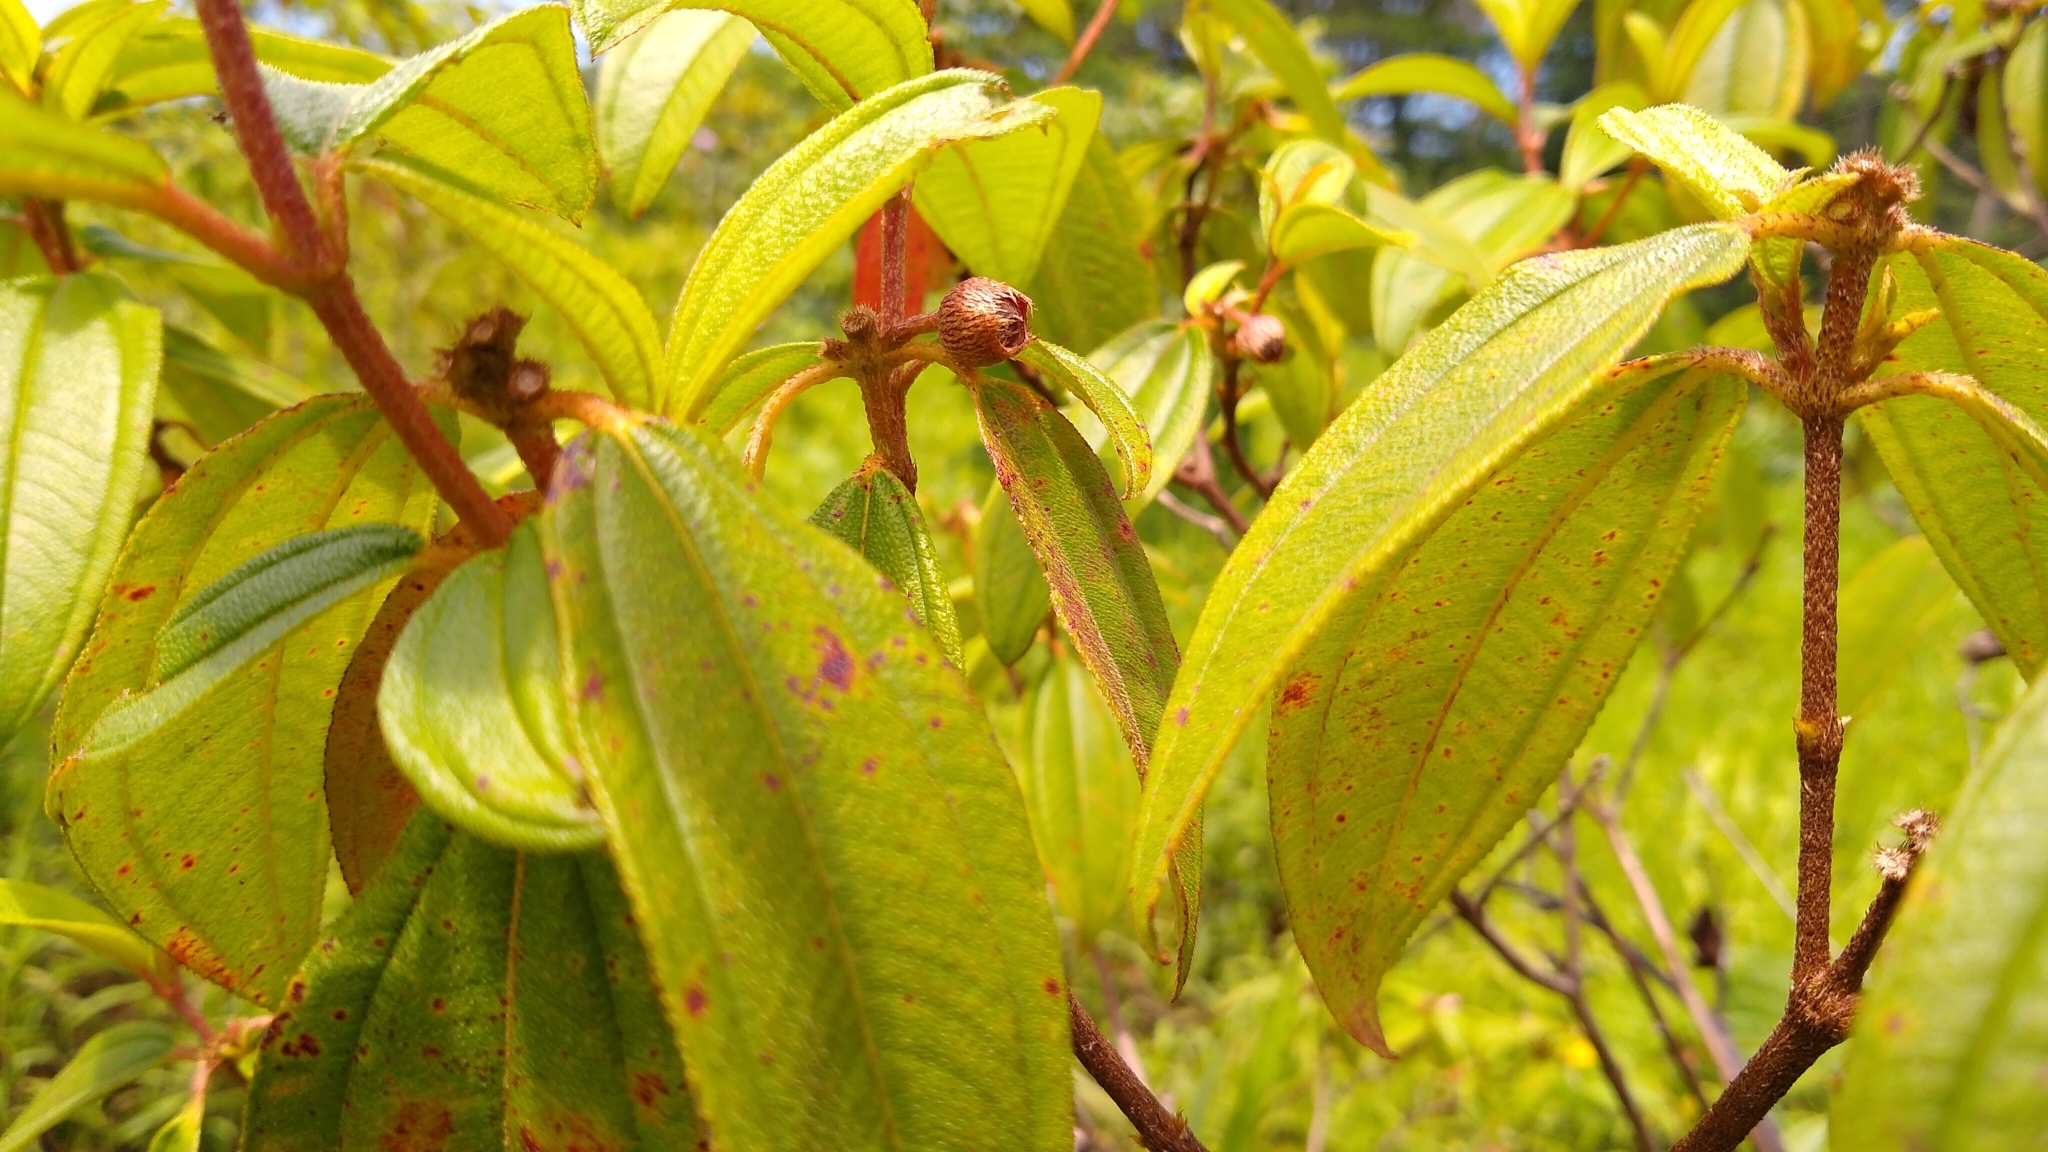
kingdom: Plantae
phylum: Tracheophyta
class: Magnoliopsida
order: Myrtales
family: Melastomataceae
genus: Melastoma
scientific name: Melastoma malabathricum
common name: Indian-rhododendron
